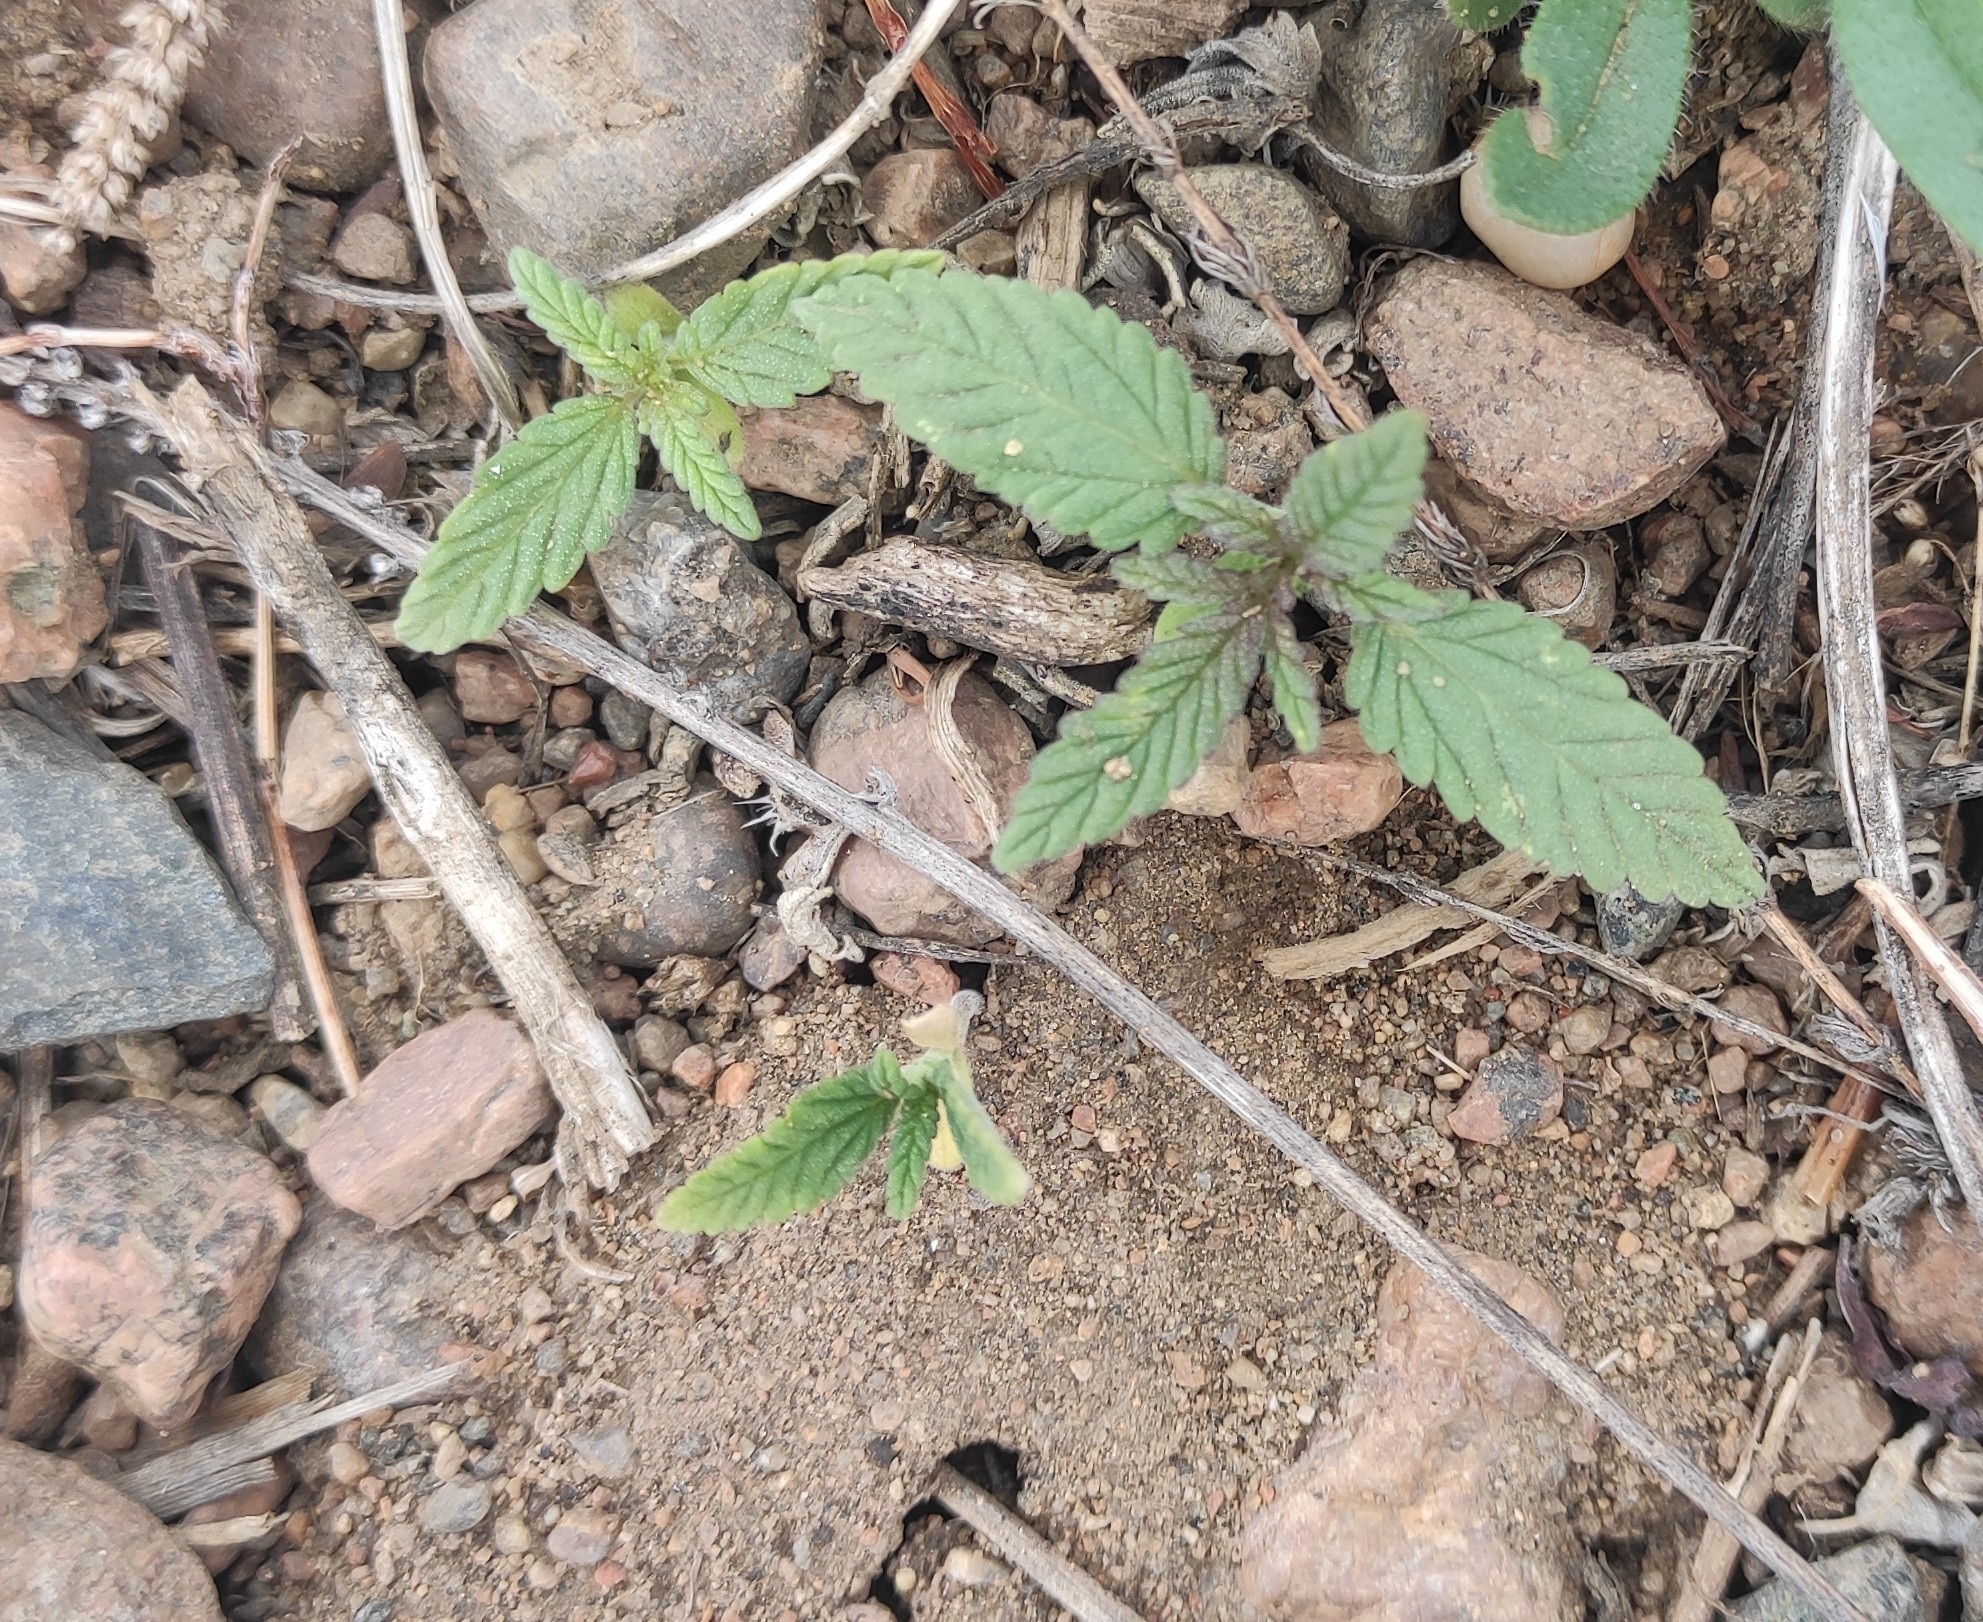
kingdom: Plantae
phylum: Tracheophyta
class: Magnoliopsida
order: Rosales
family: Cannabaceae
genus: Cannabis
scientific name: Cannabis sativa
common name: Hemp
